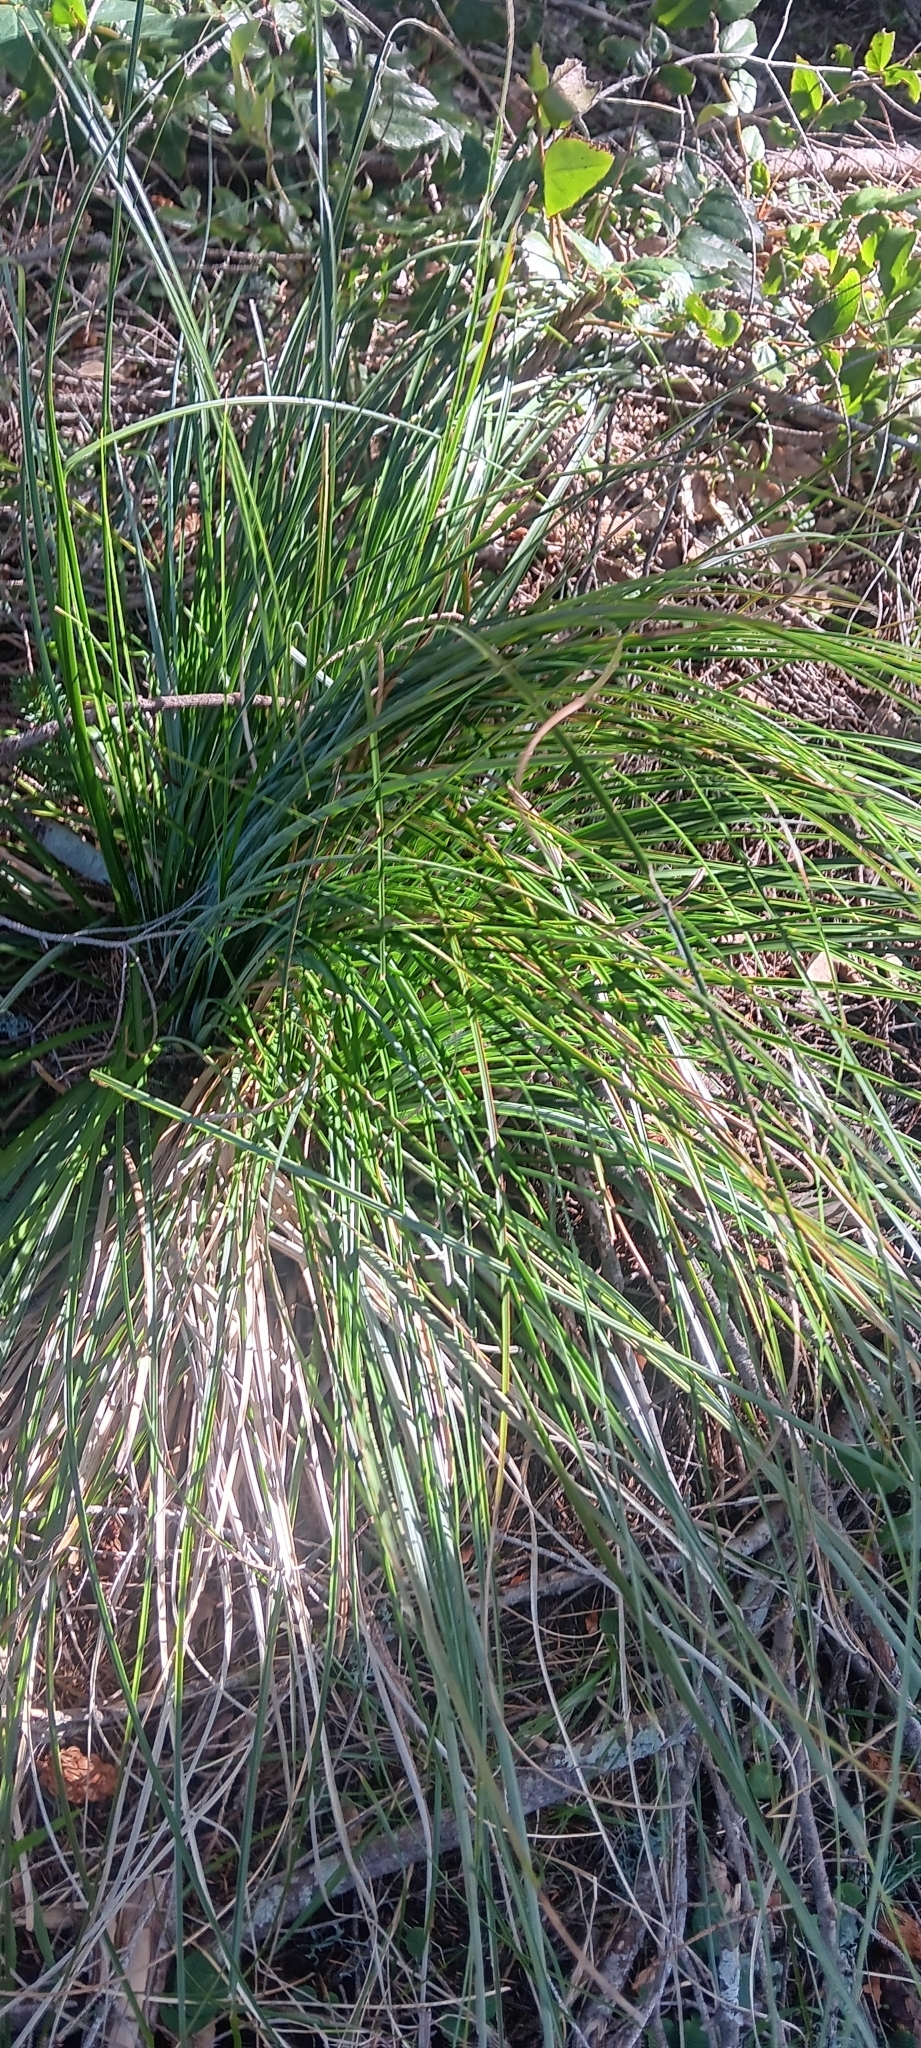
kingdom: Plantae
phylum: Tracheophyta
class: Liliopsida
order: Liliales
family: Melanthiaceae
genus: Xerophyllum
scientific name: Xerophyllum tenax
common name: Bear-grass
